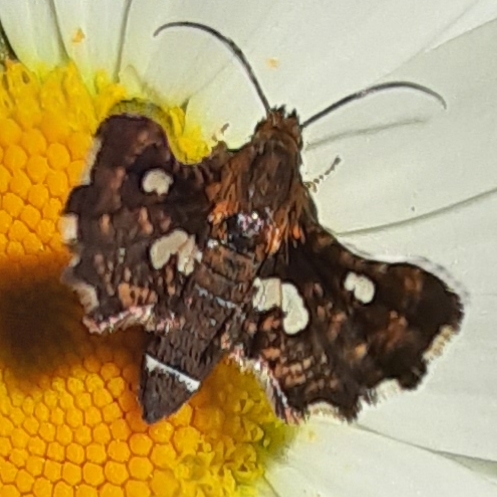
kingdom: Animalia
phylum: Arthropoda
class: Insecta
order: Lepidoptera
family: Thyrididae
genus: Thyris
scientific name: Thyris maculata
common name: Spotted thyris moth
